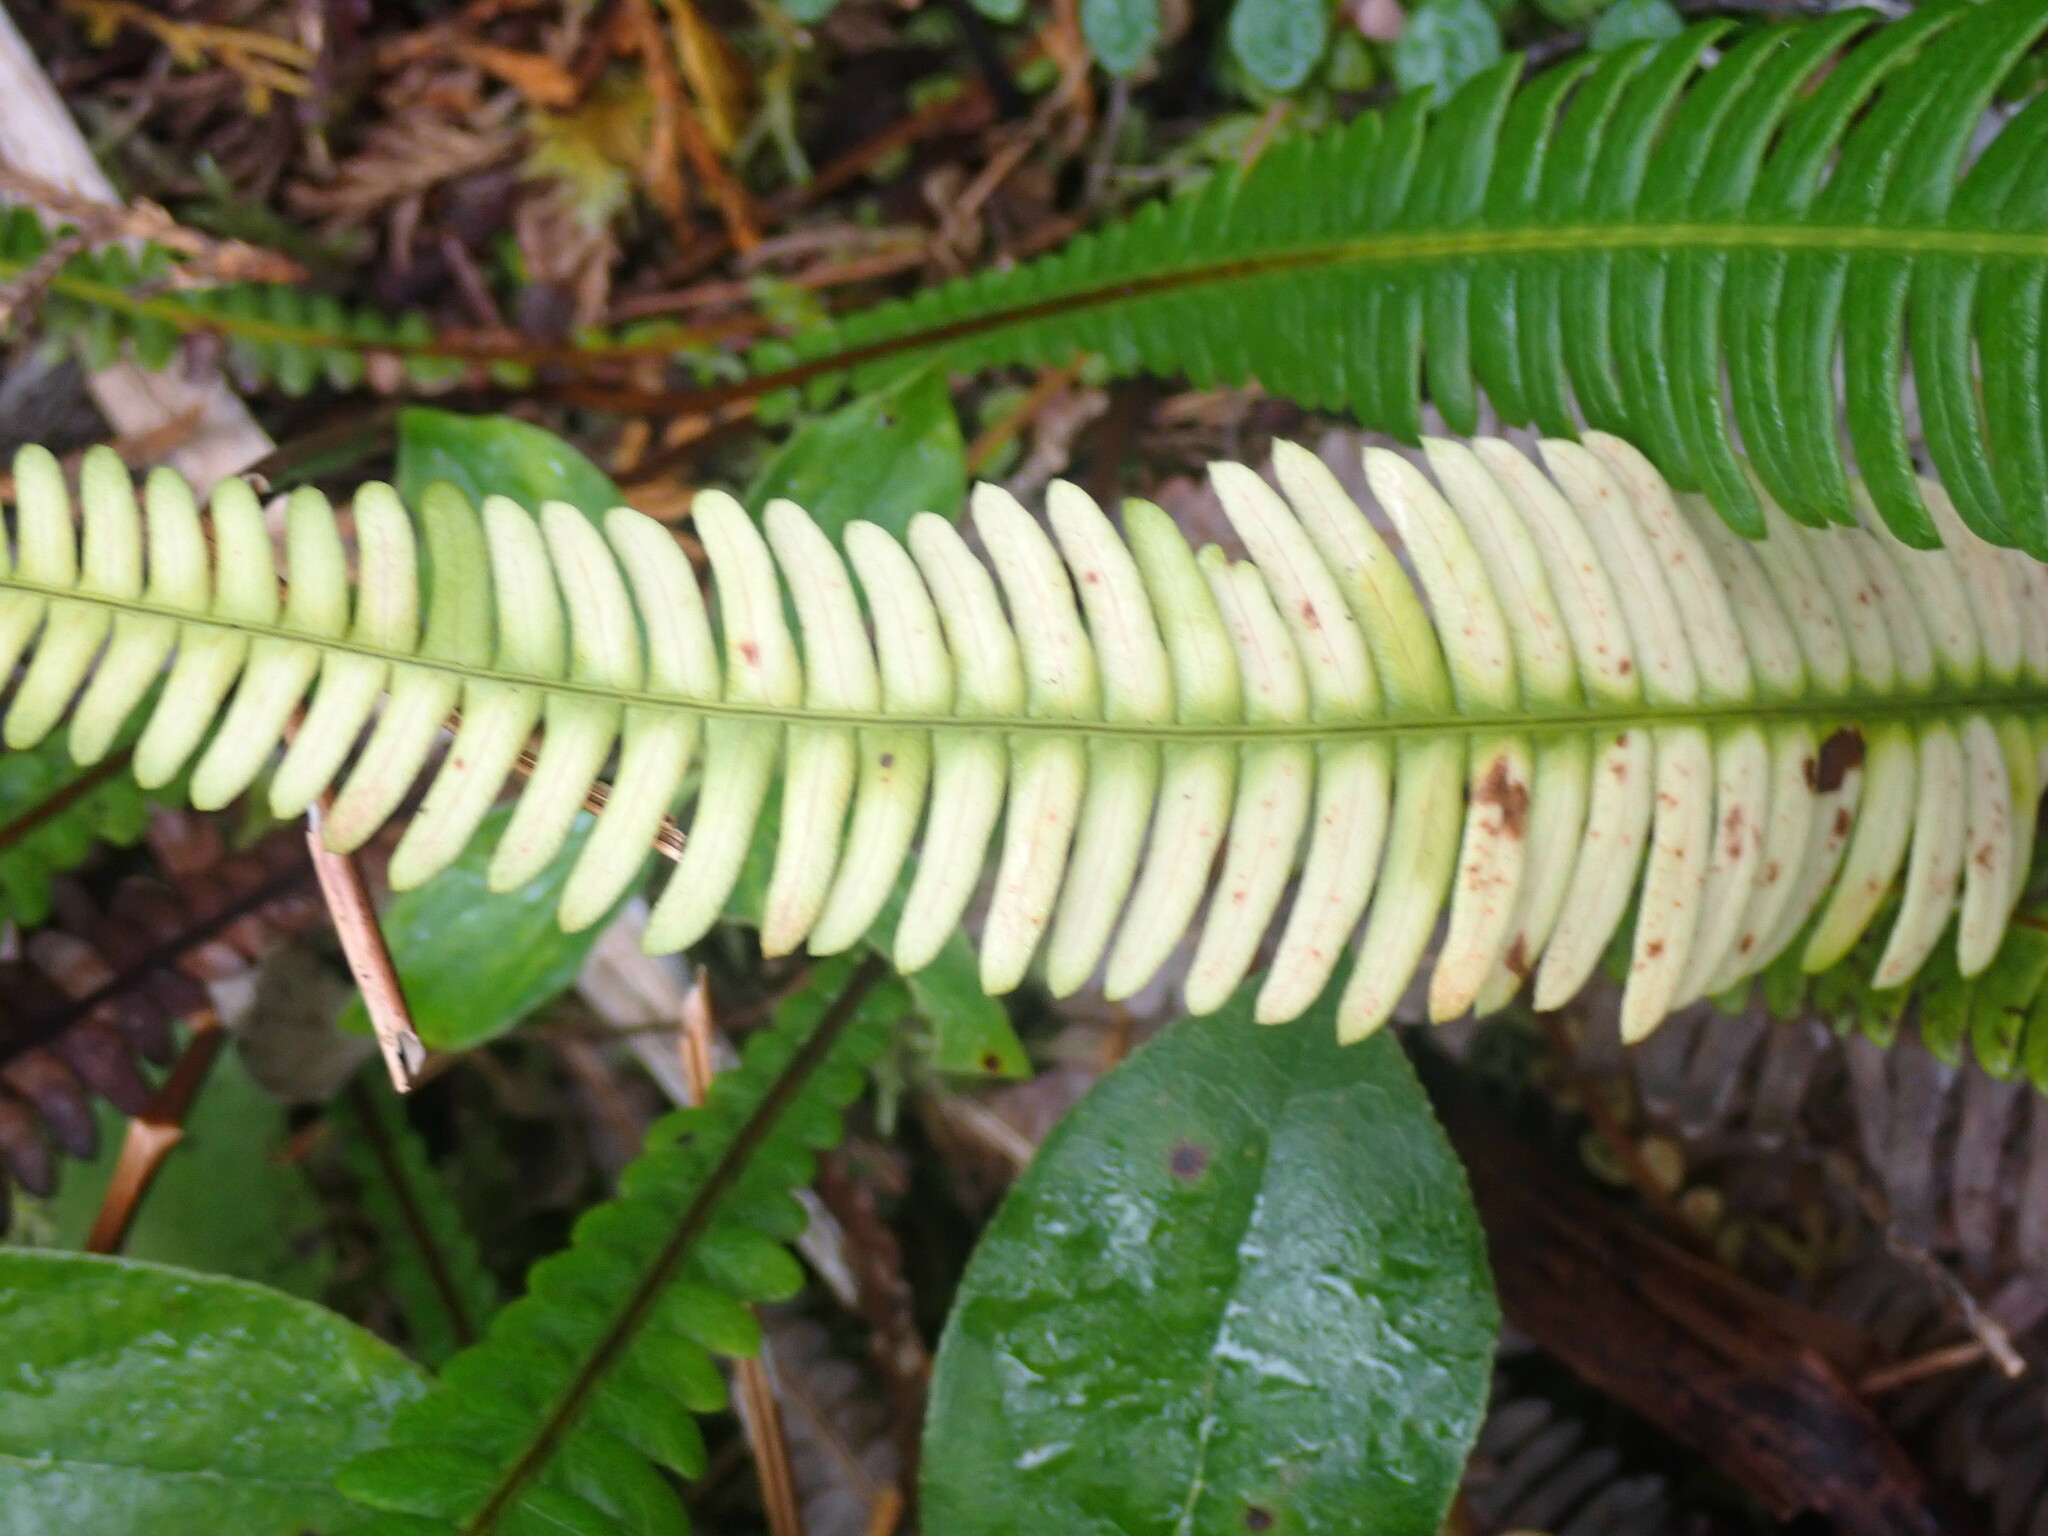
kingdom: Plantae
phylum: Tracheophyta
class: Polypodiopsida
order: Polypodiales
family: Blechnaceae
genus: Struthiopteris
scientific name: Struthiopteris spicant
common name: Deer fern
